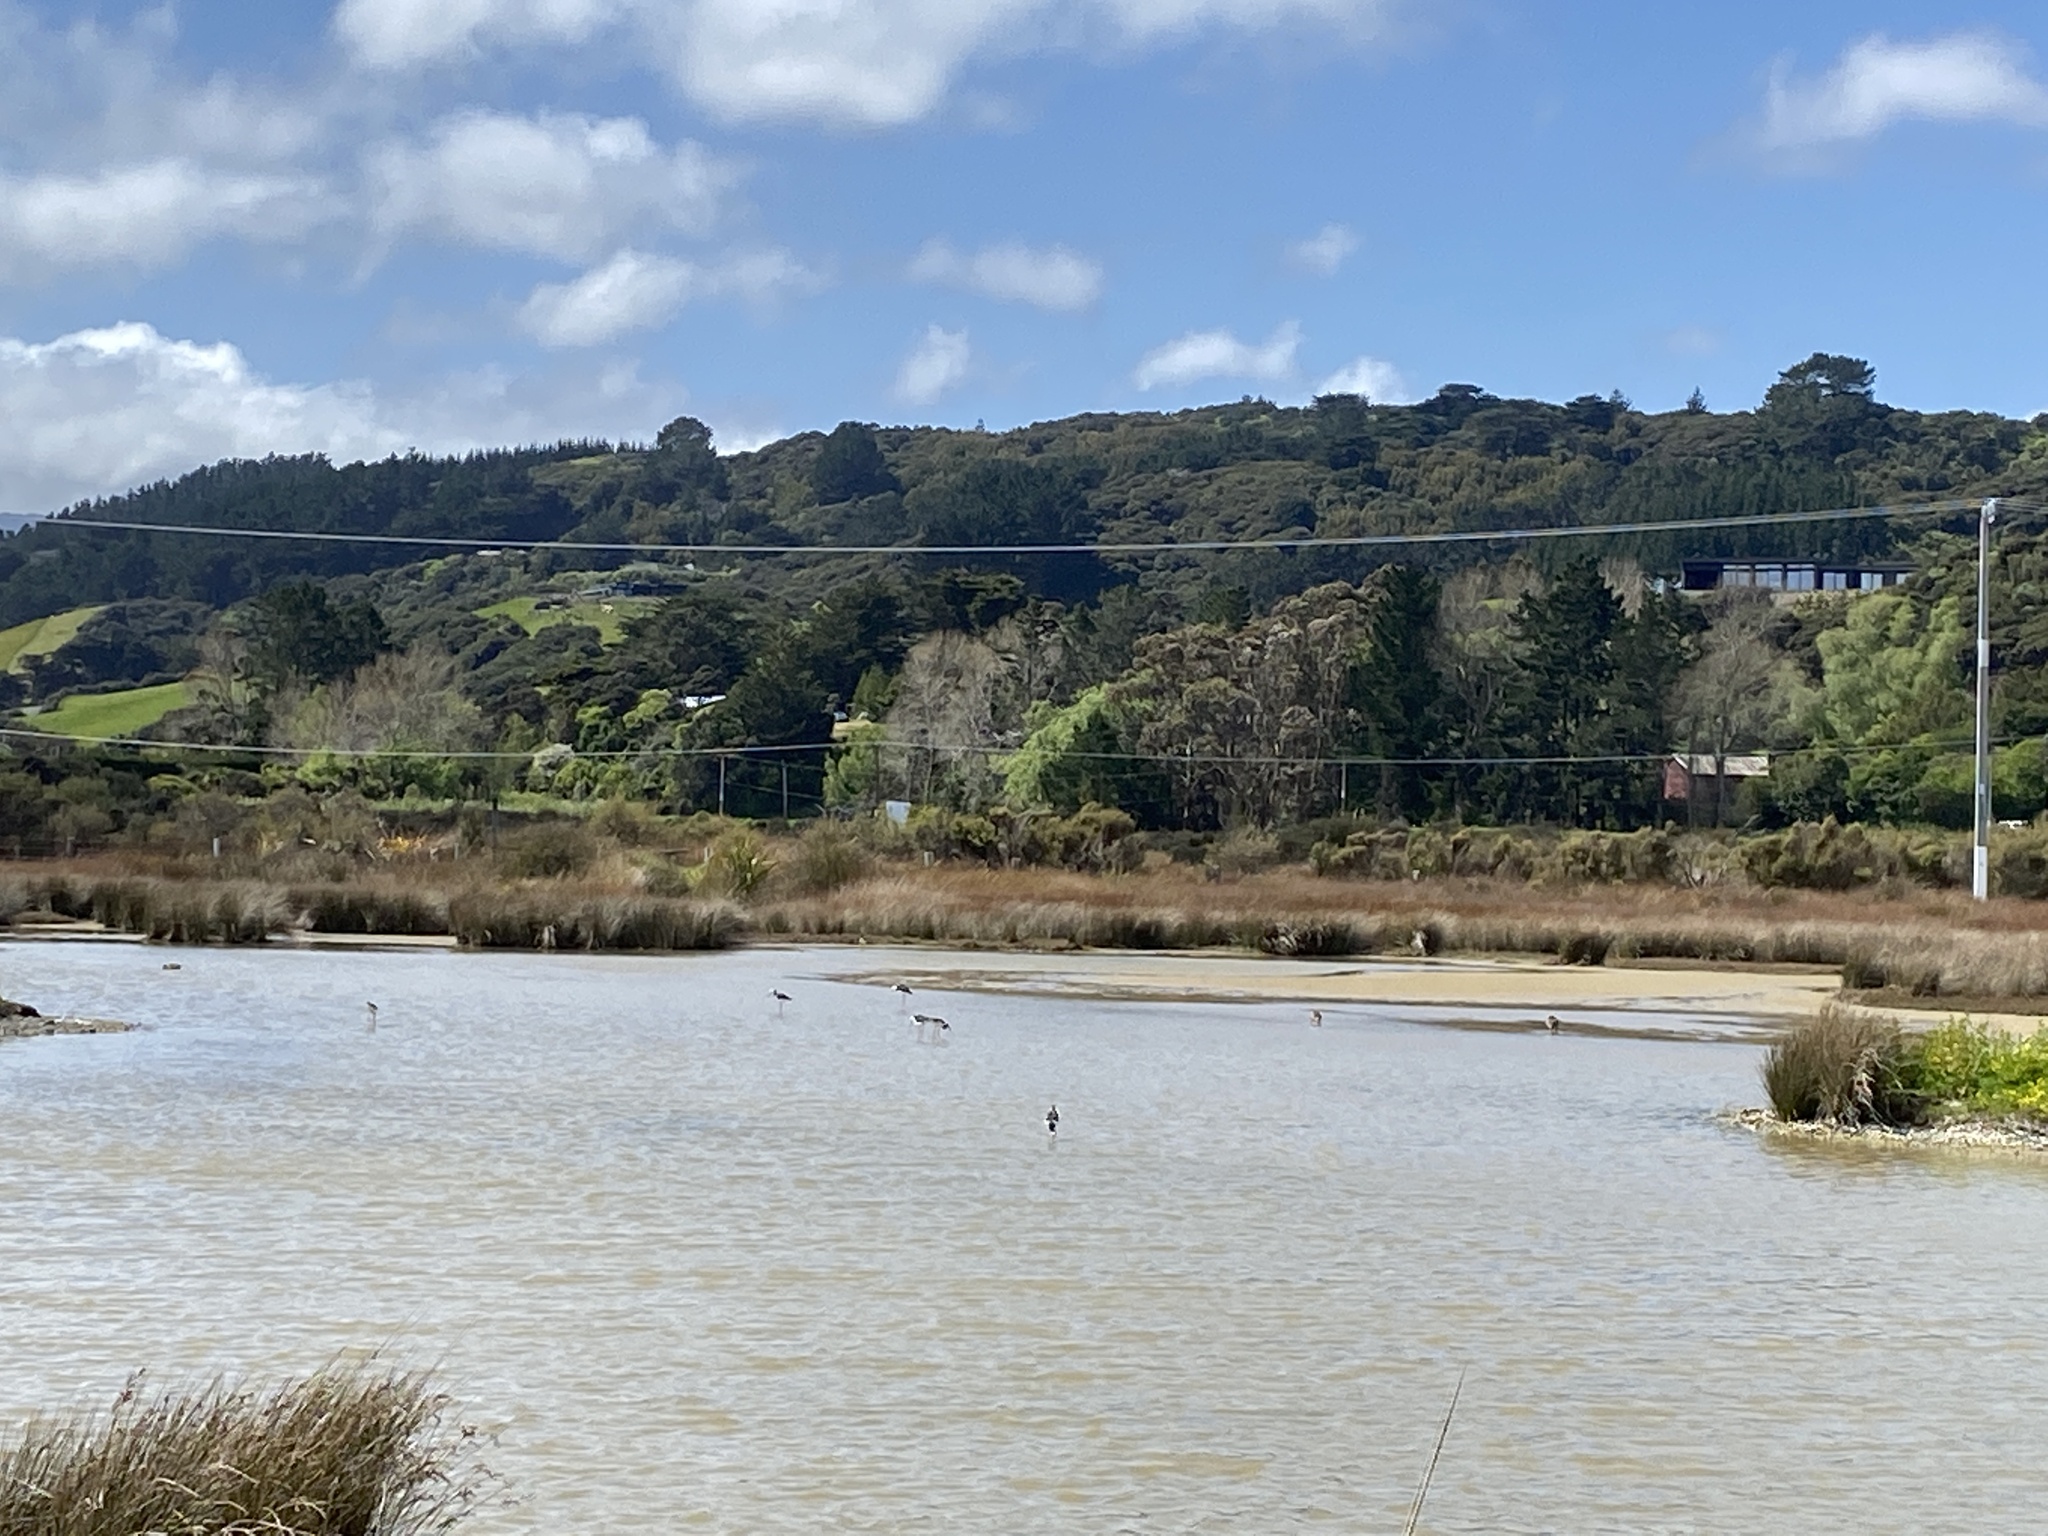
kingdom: Animalia
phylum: Chordata
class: Aves
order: Charadriiformes
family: Recurvirostridae
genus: Himantopus
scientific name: Himantopus leucocephalus
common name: White-headed stilt
